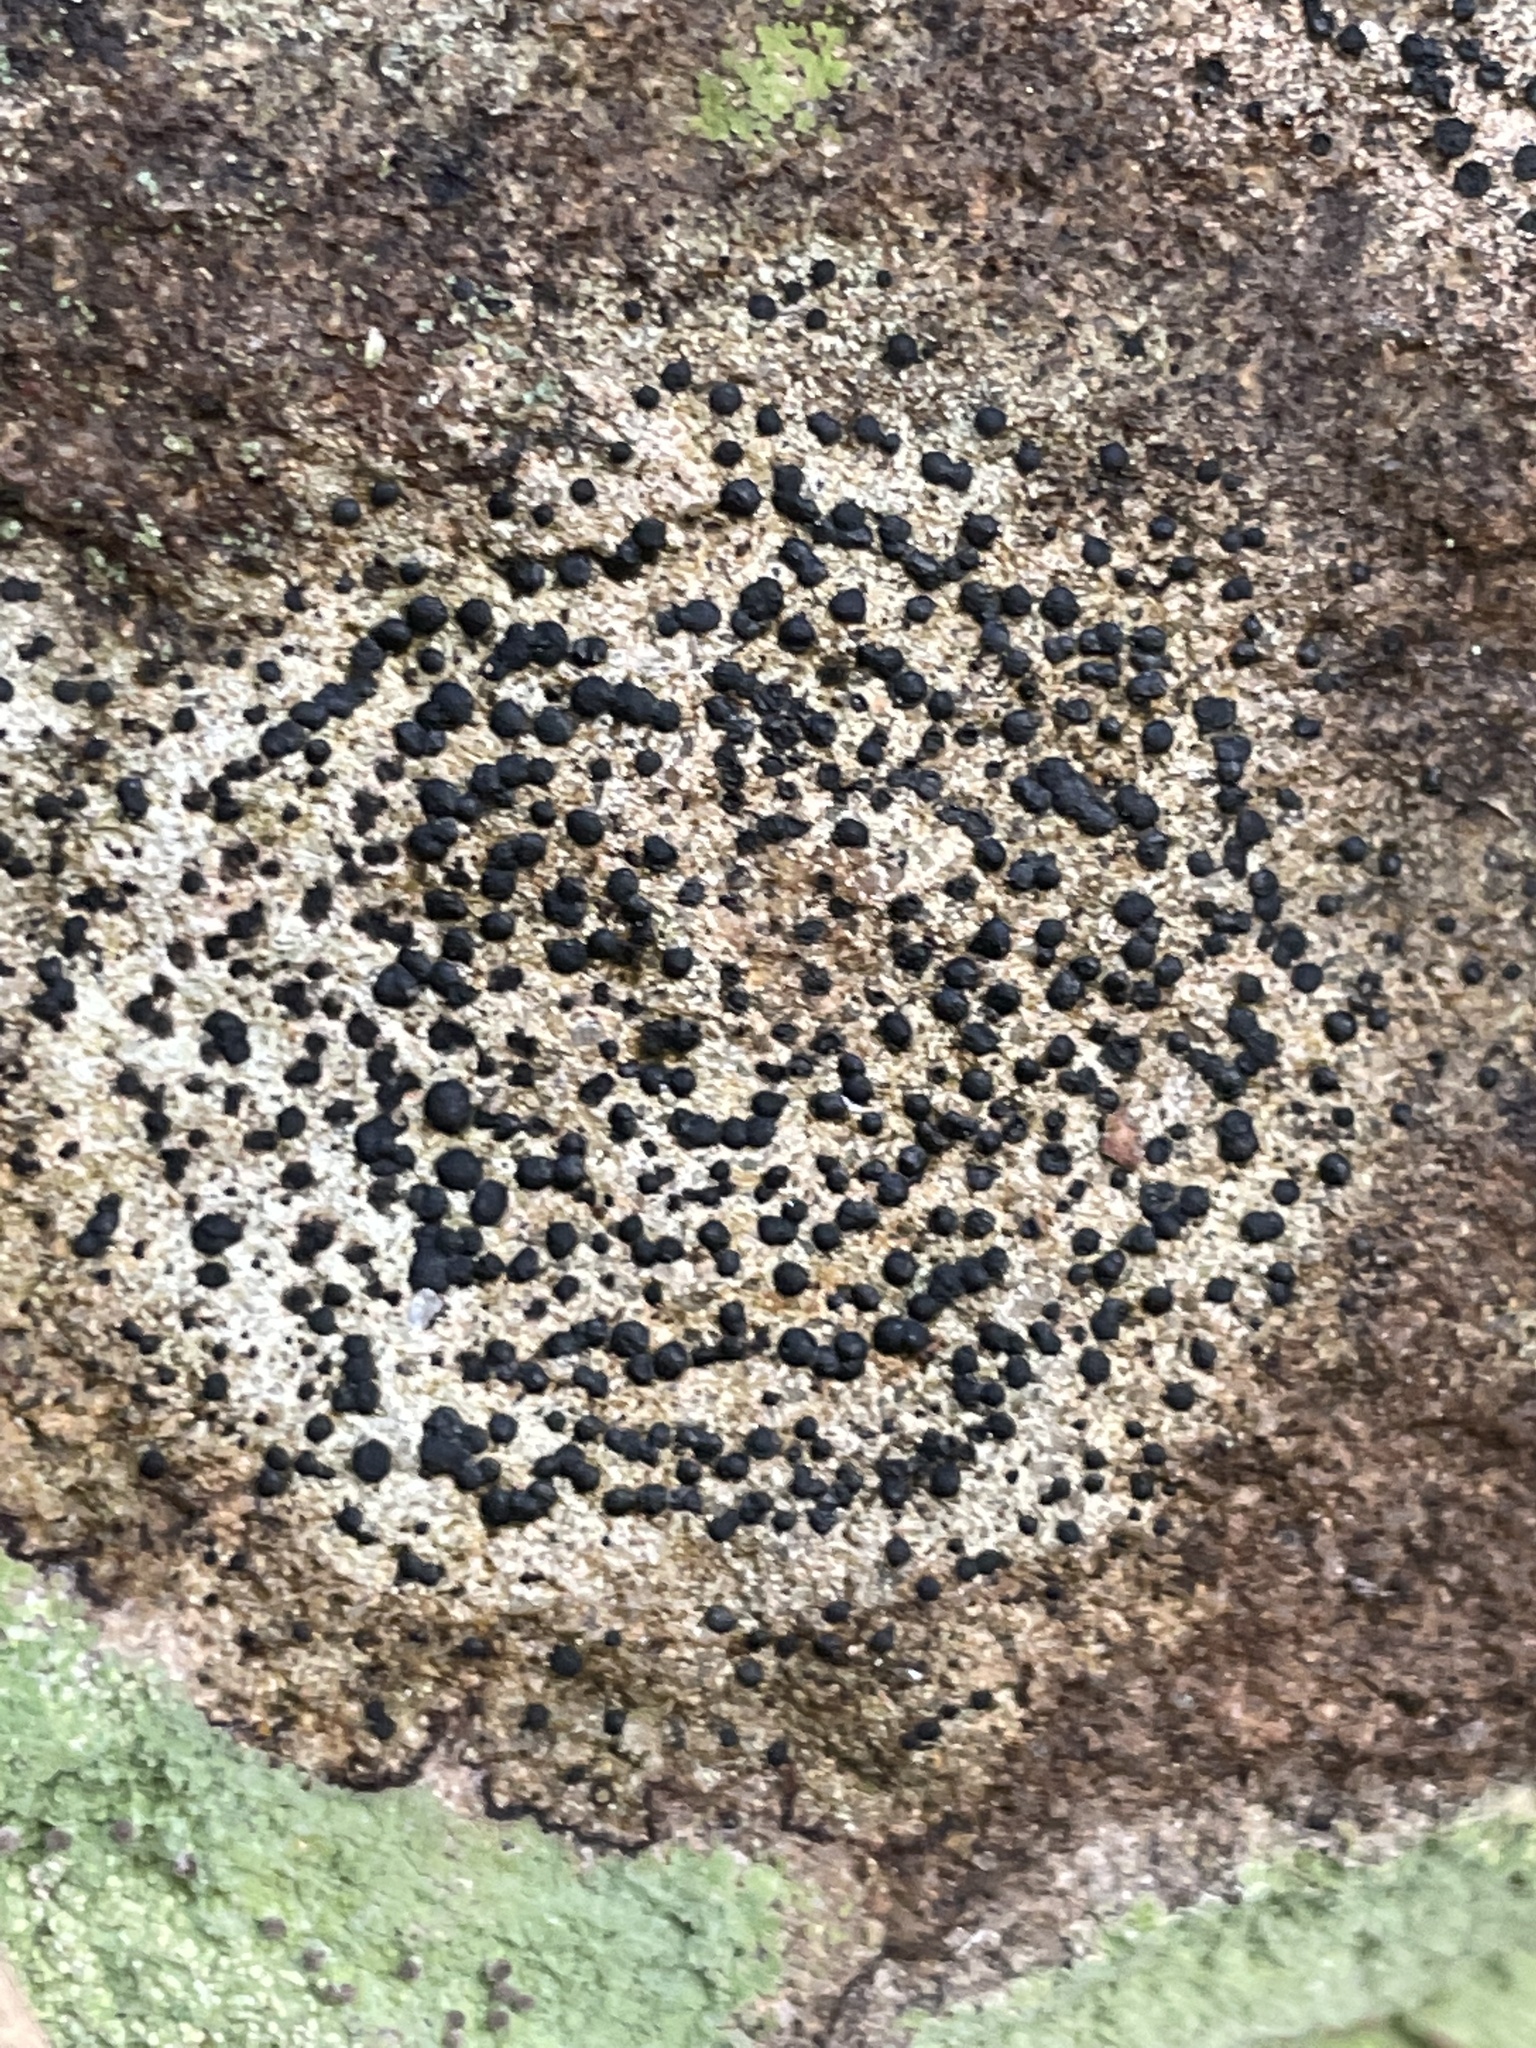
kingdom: Fungi
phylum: Ascomycota
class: Lecanoromycetes
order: Lecideales
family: Lecideaceae
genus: Porpidia
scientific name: Porpidia crustulata
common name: Concentric boulder lichen
